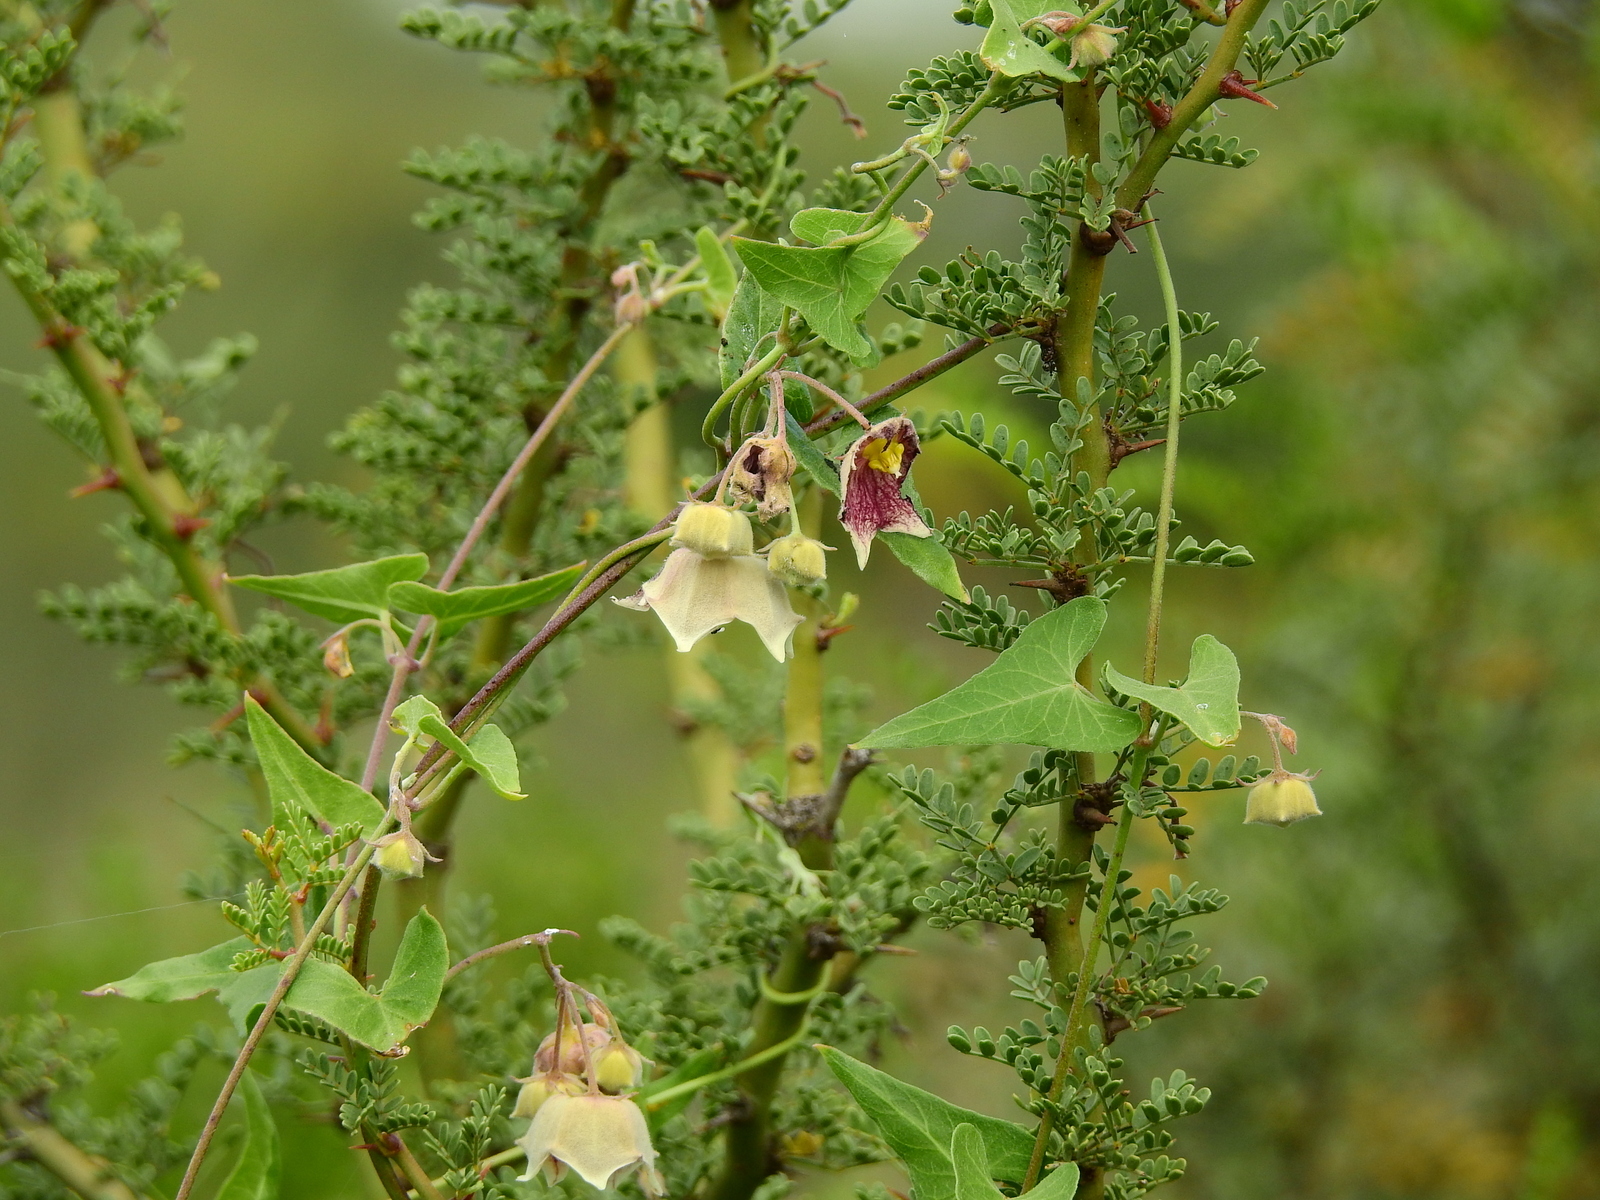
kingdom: Plantae
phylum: Tracheophyta
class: Magnoliopsida
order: Gentianales
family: Apocynaceae
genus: Philibertia
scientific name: Philibertia gilliesii
